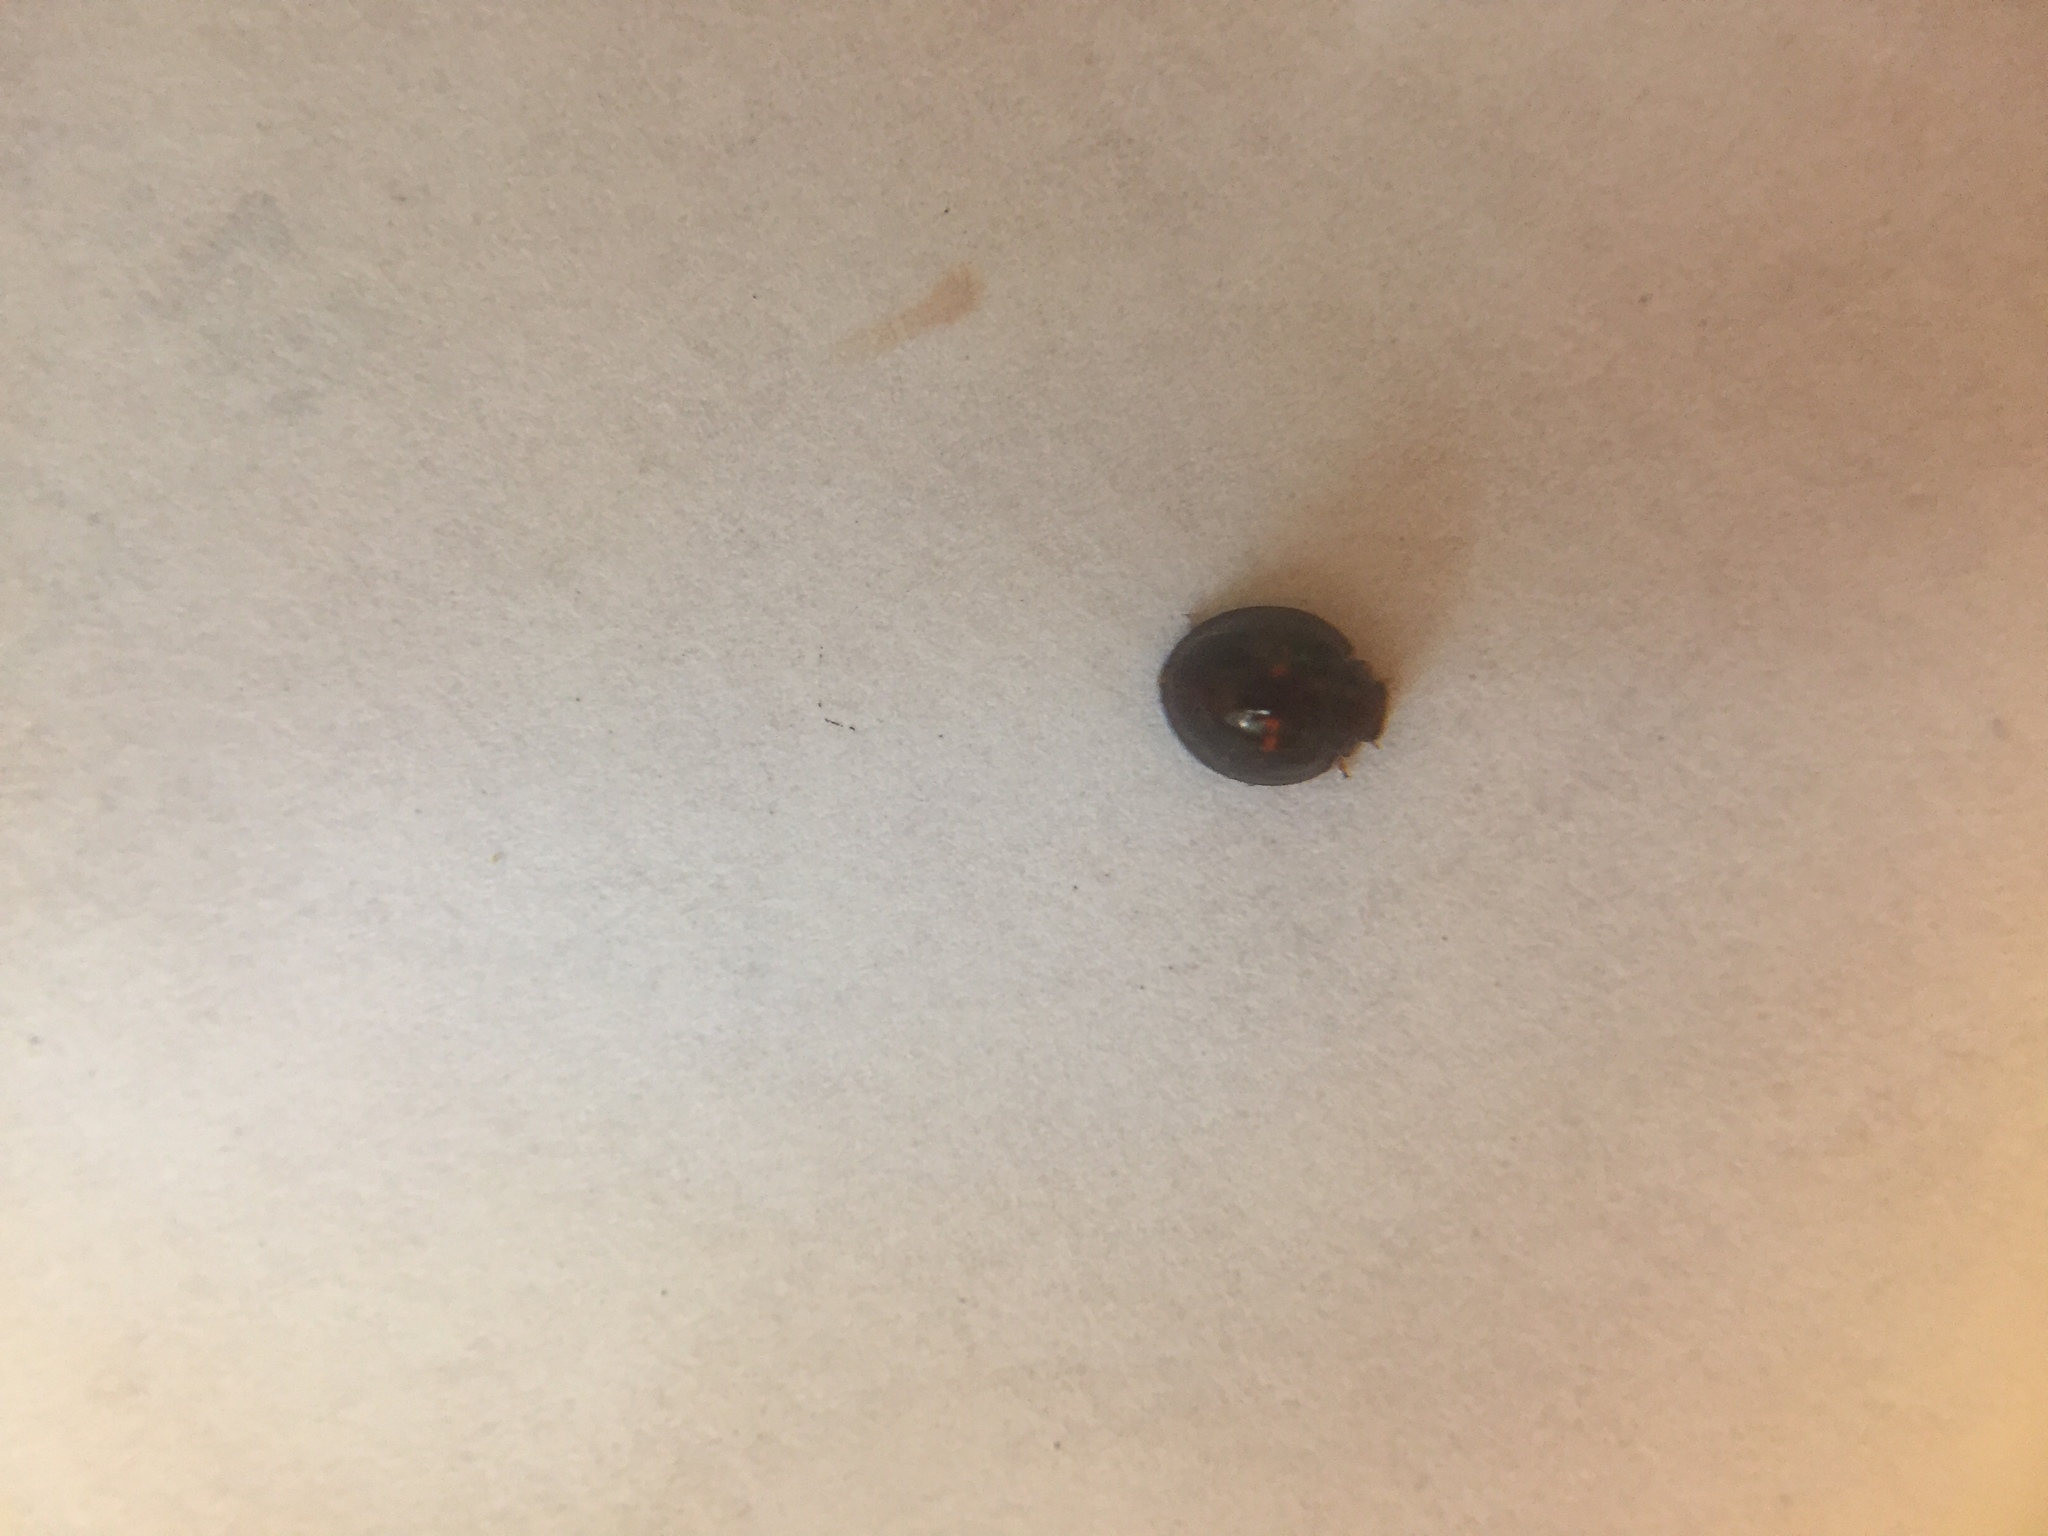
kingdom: Animalia
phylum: Arthropoda
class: Insecta
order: Coleoptera
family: Coccinellidae
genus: Chilocorus
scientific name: Chilocorus bipustulatus
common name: Heather ladybird
